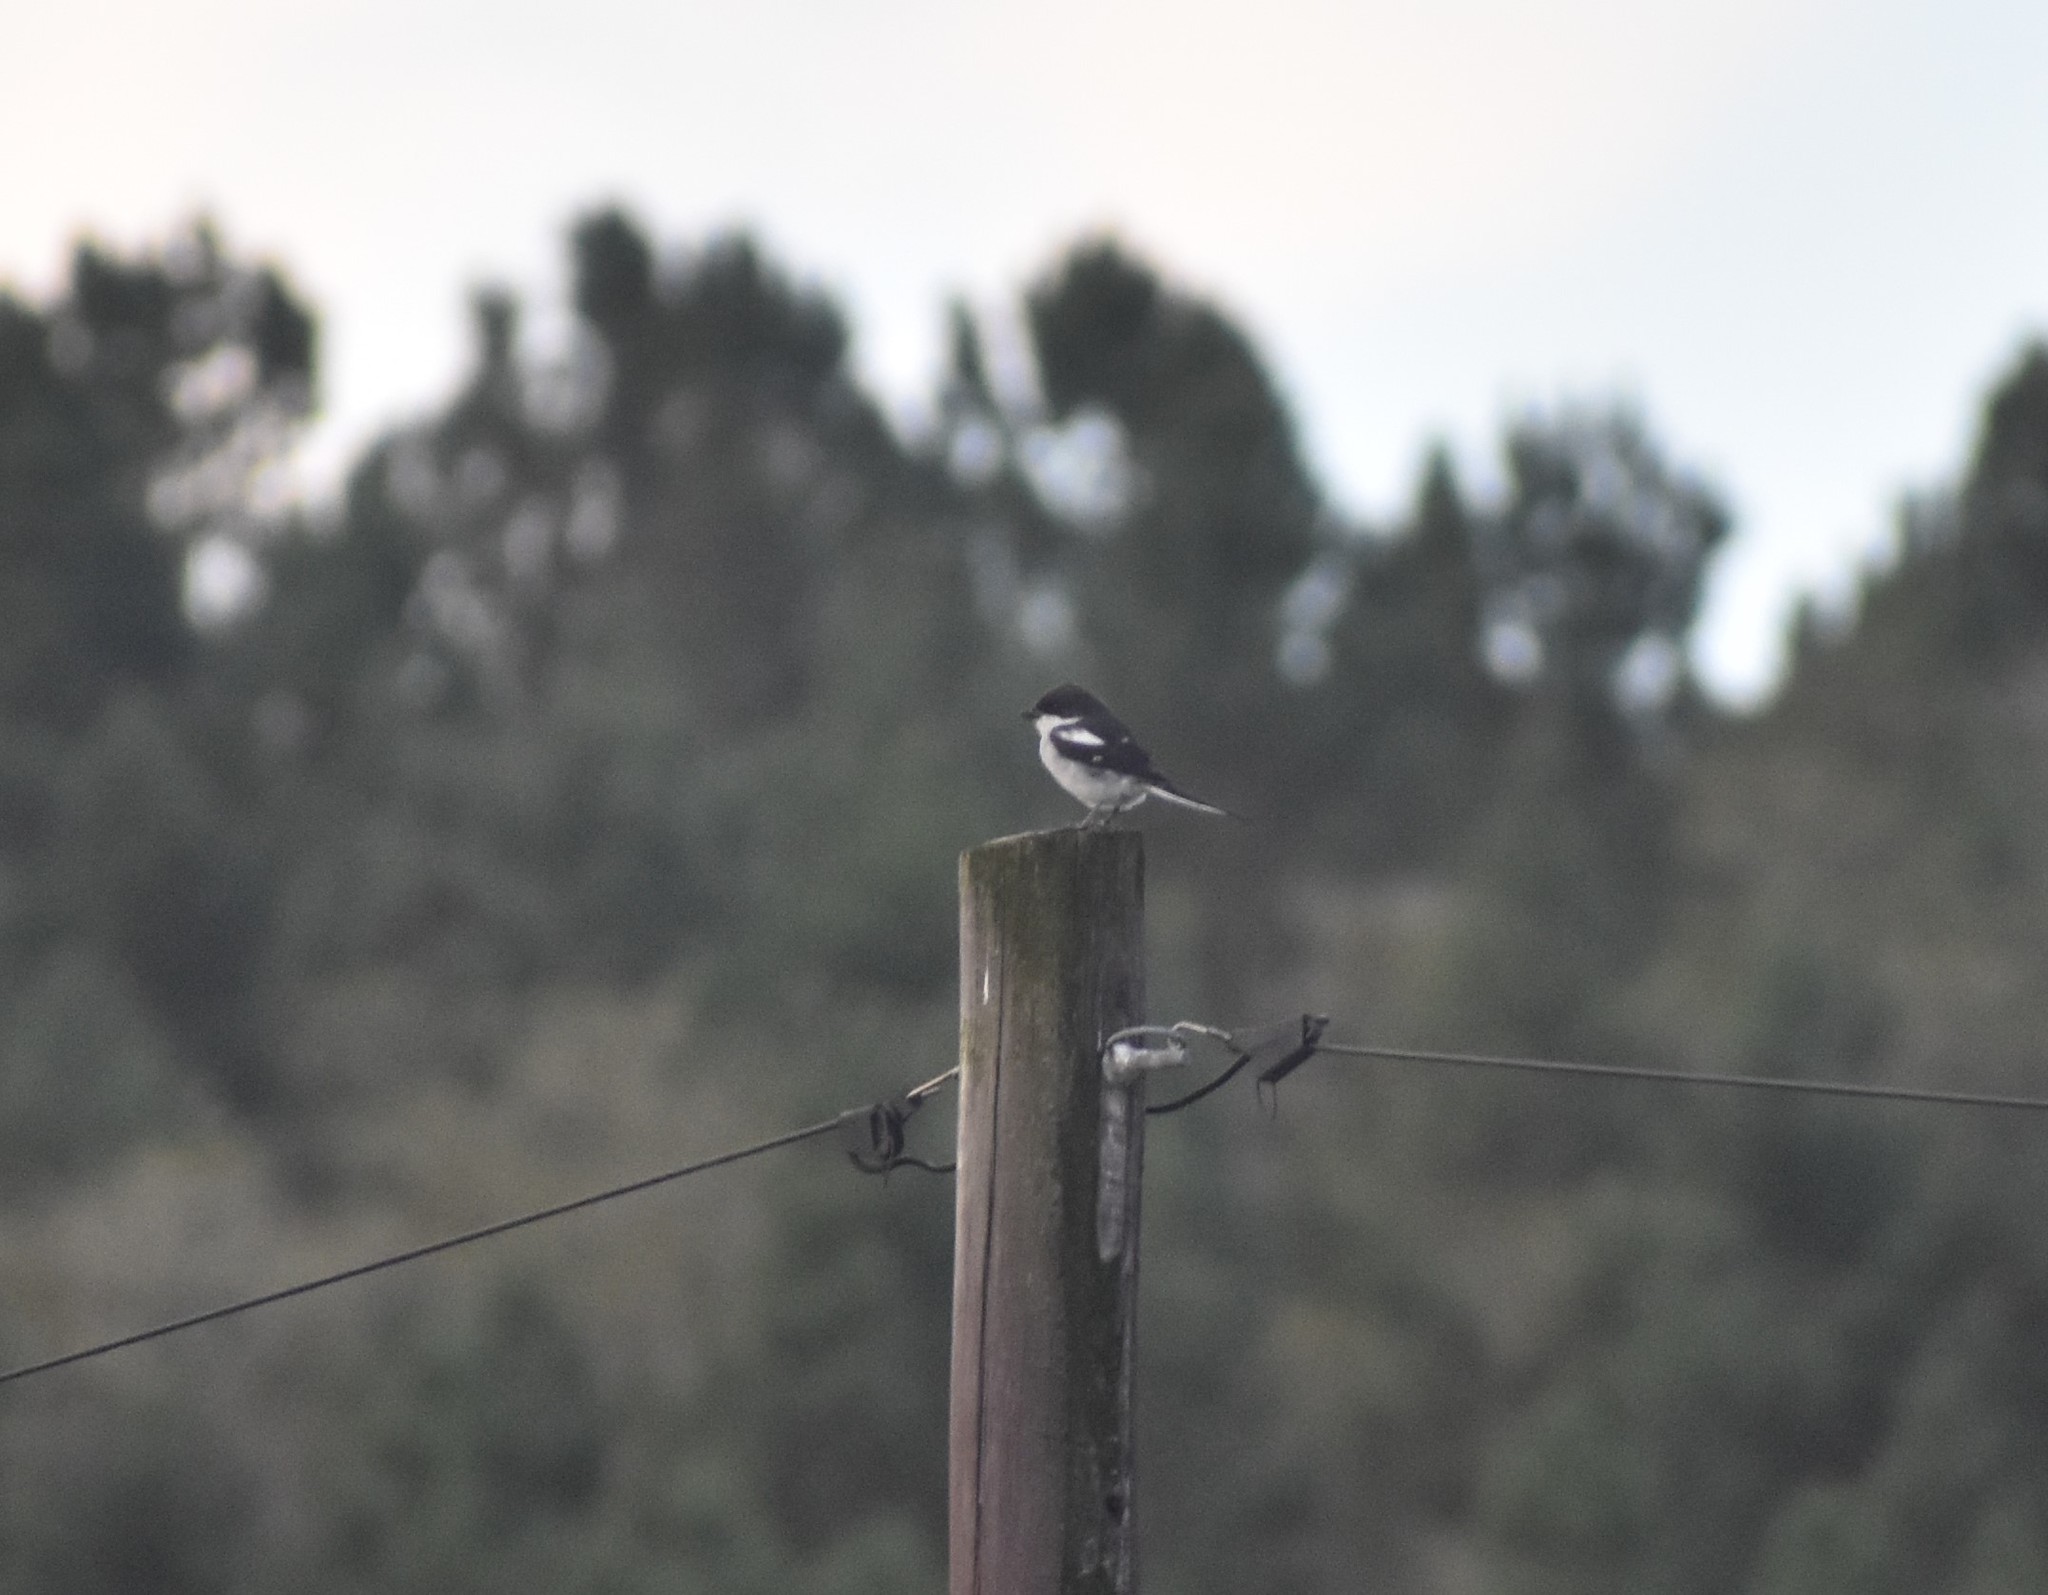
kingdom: Animalia
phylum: Chordata
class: Aves
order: Passeriformes
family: Laniidae
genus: Lanius
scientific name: Lanius collaris
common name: Southern fiscal
